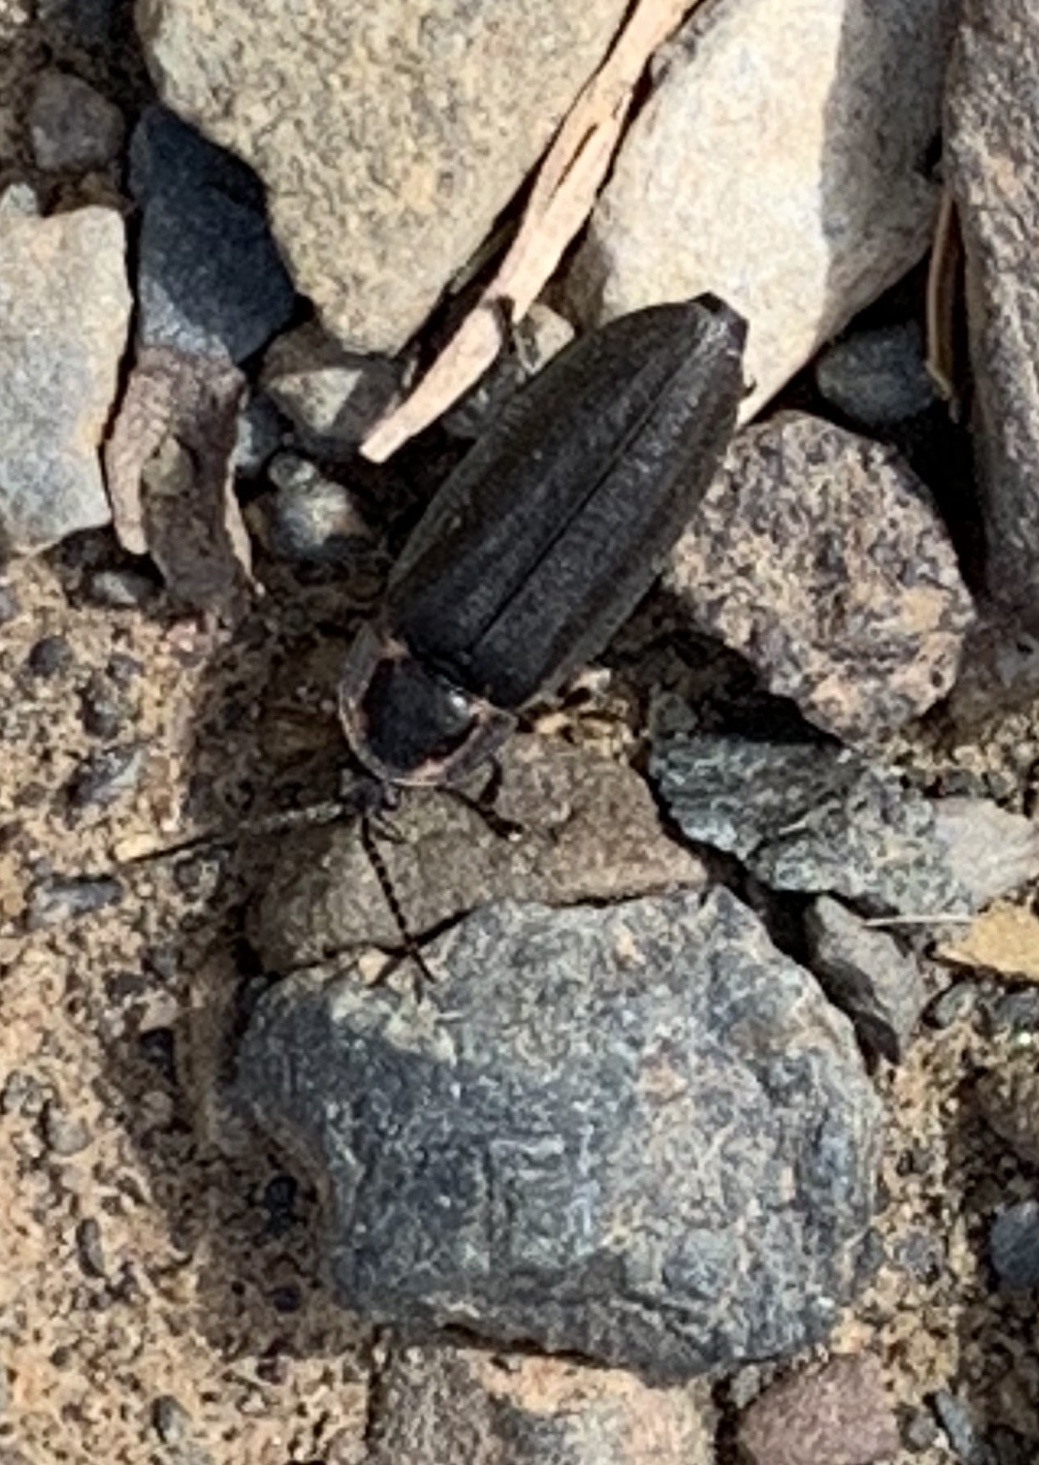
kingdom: Animalia
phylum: Arthropoda
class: Insecta
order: Coleoptera
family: Lampyridae
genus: Photinus
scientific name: Photinus corrusca
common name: Winter firefly
